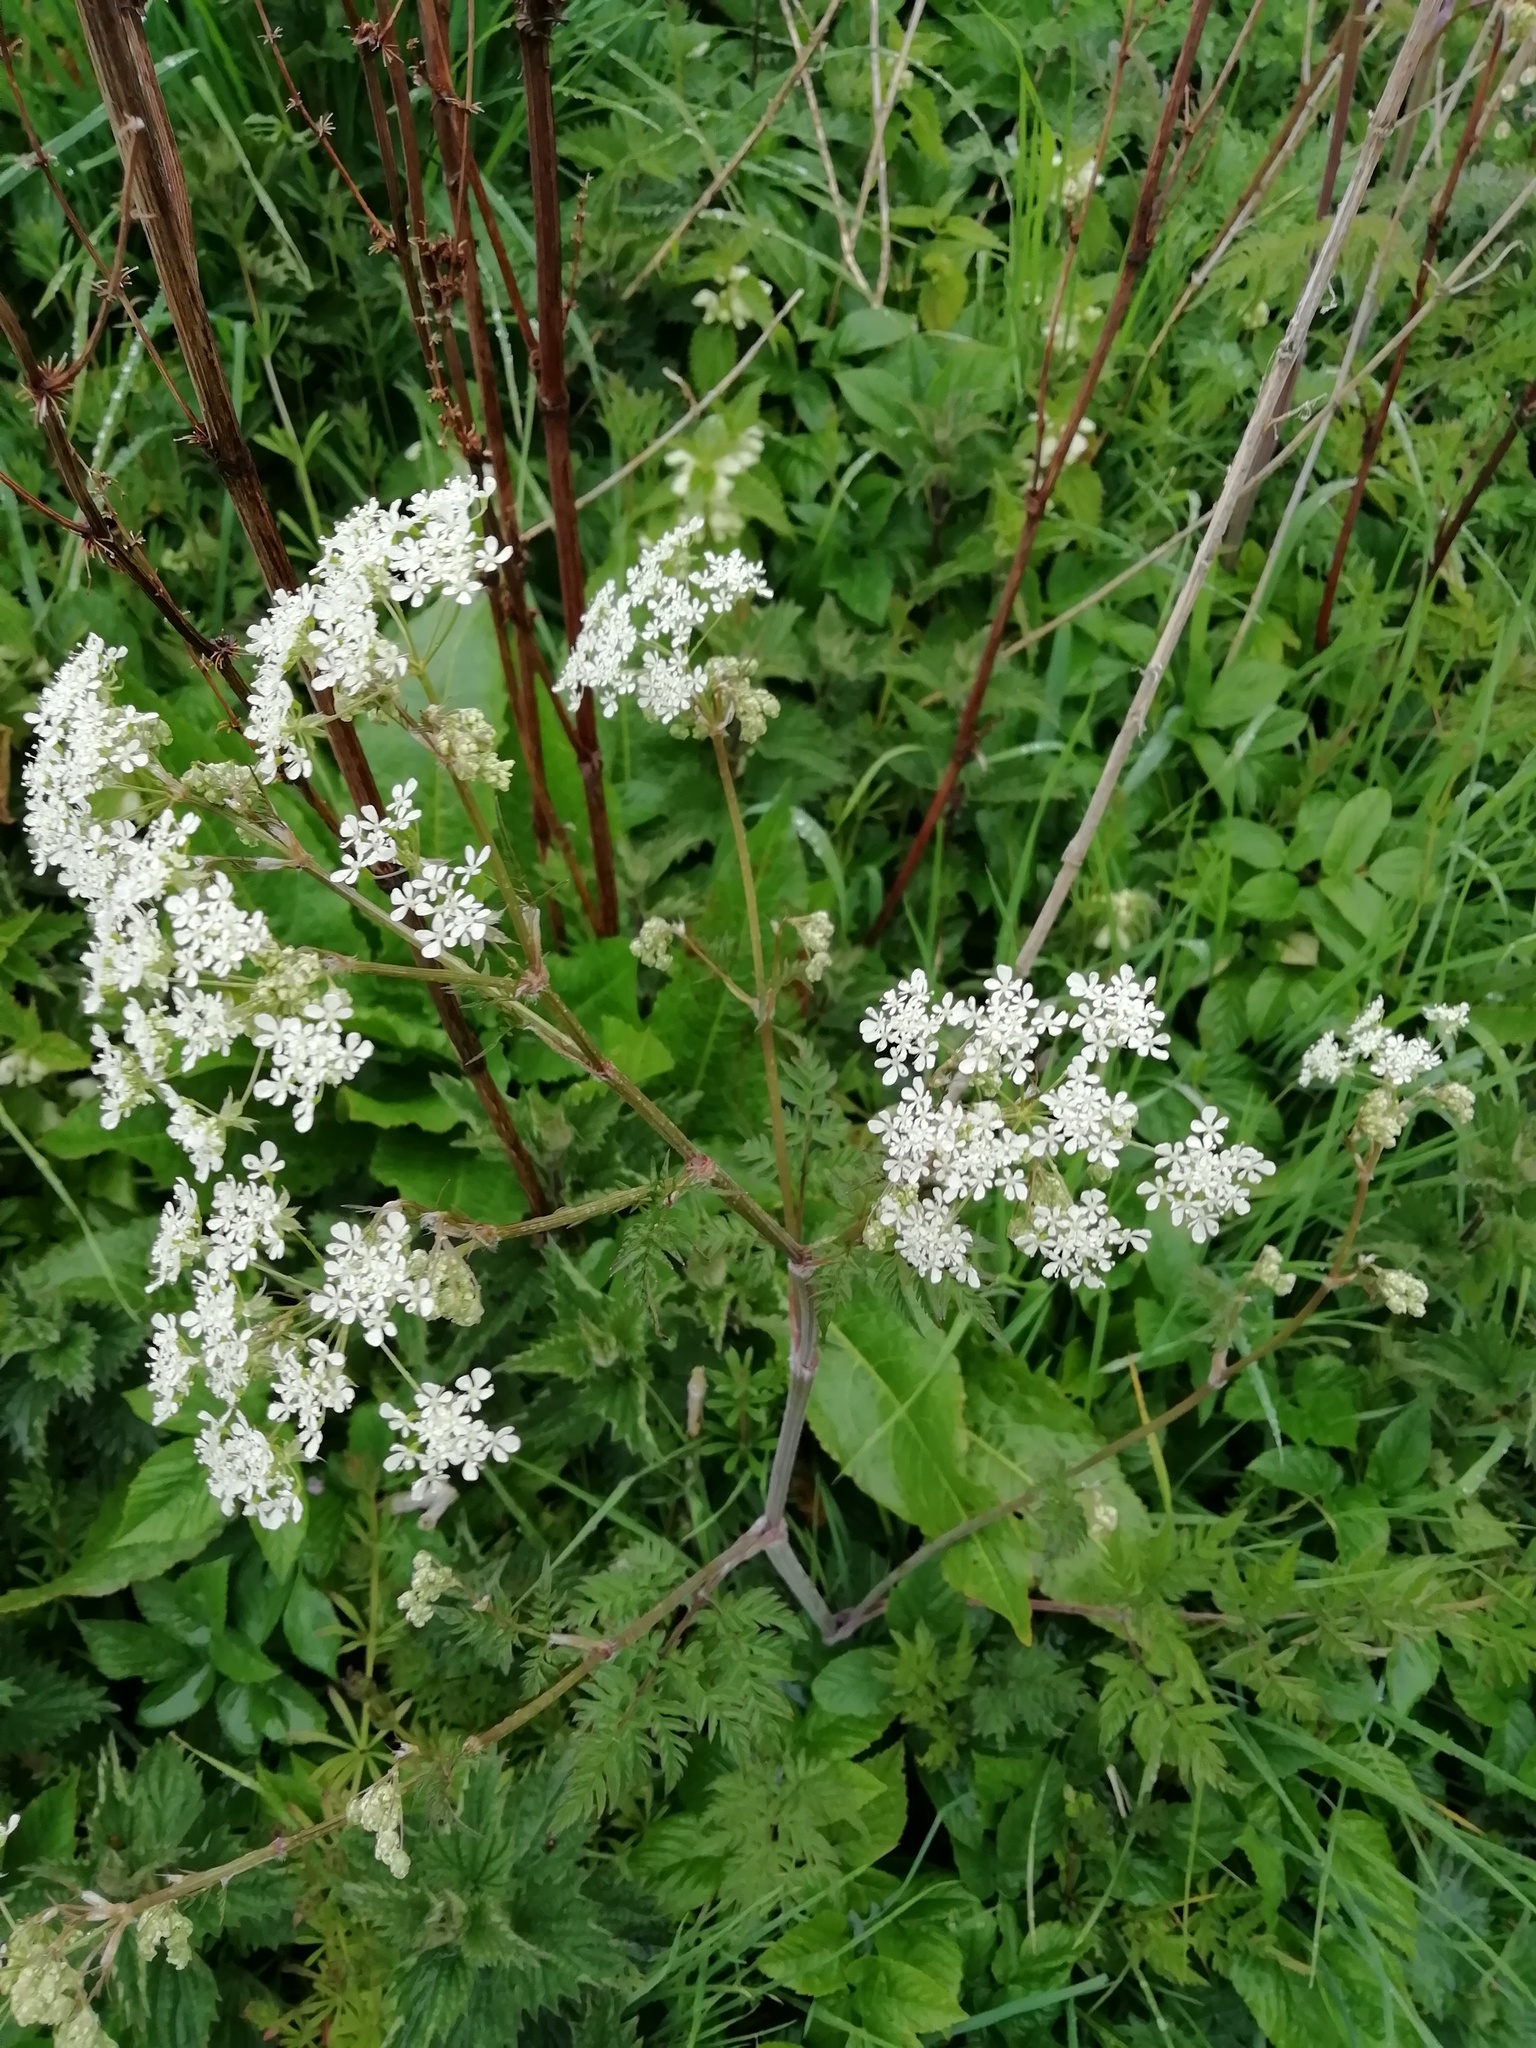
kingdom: Plantae
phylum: Tracheophyta
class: Magnoliopsida
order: Apiales
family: Apiaceae
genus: Anthriscus
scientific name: Anthriscus sylvestris
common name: Cow parsley
